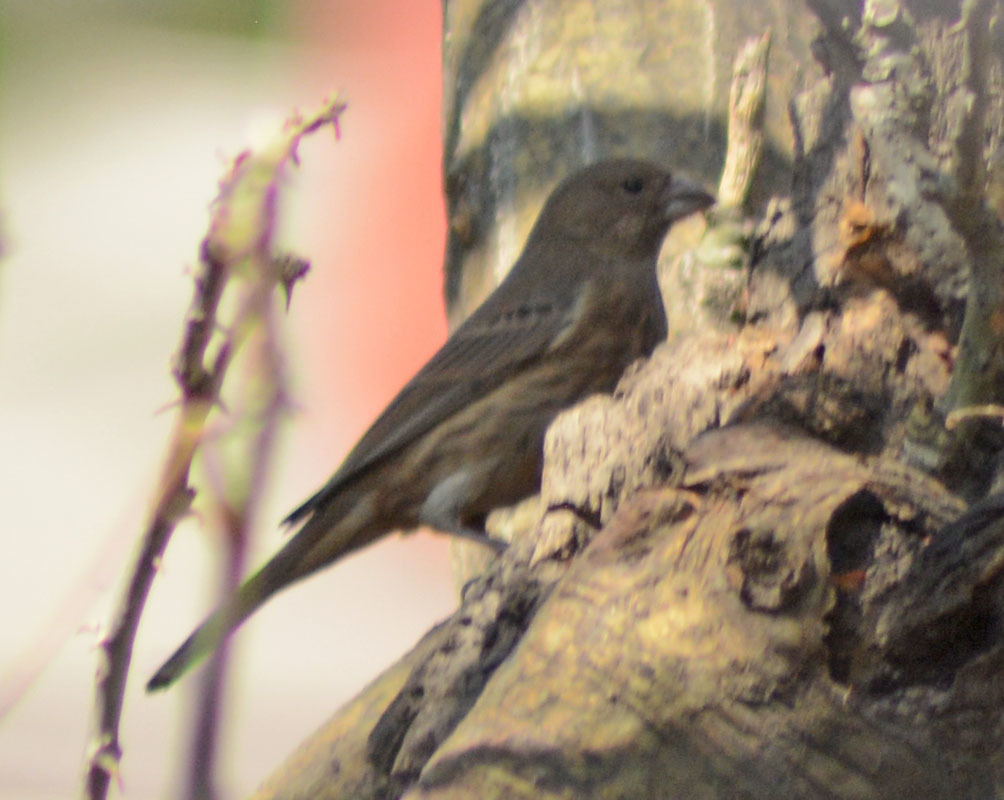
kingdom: Animalia
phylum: Chordata
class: Aves
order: Passeriformes
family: Fringillidae
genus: Haemorhous
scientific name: Haemorhous mexicanus
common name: House finch
